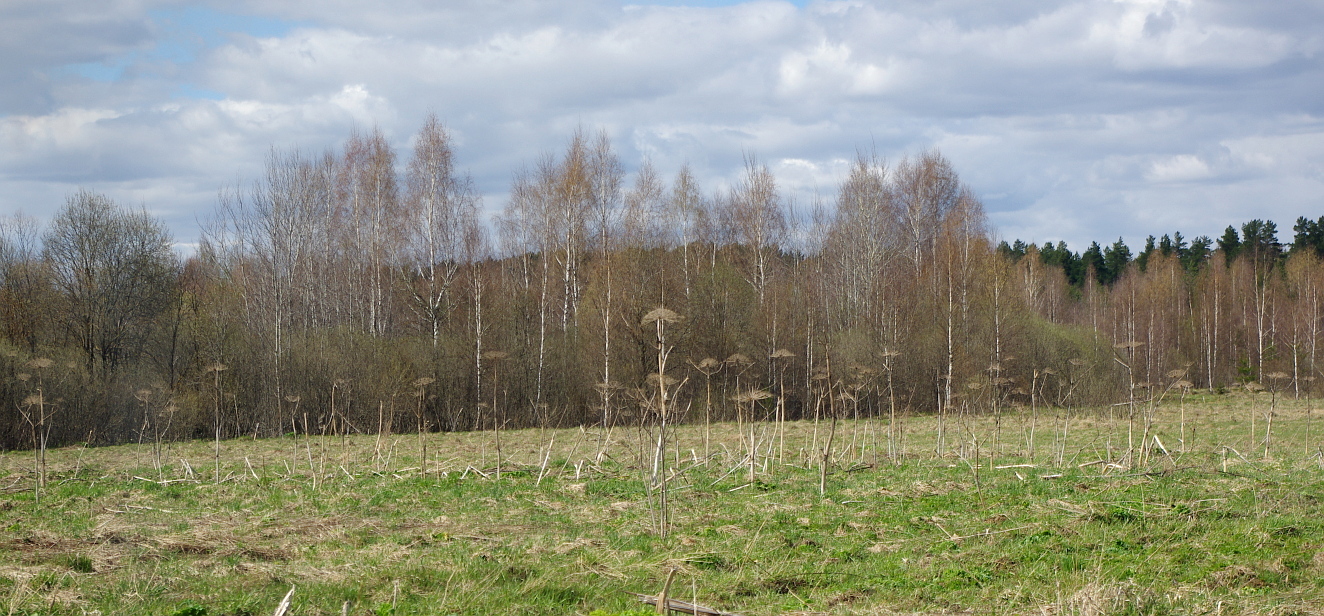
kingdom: Plantae
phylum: Tracheophyta
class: Magnoliopsida
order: Apiales
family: Apiaceae
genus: Heracleum
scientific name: Heracleum sosnowskyi
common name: Sosnowsky's hogweed
